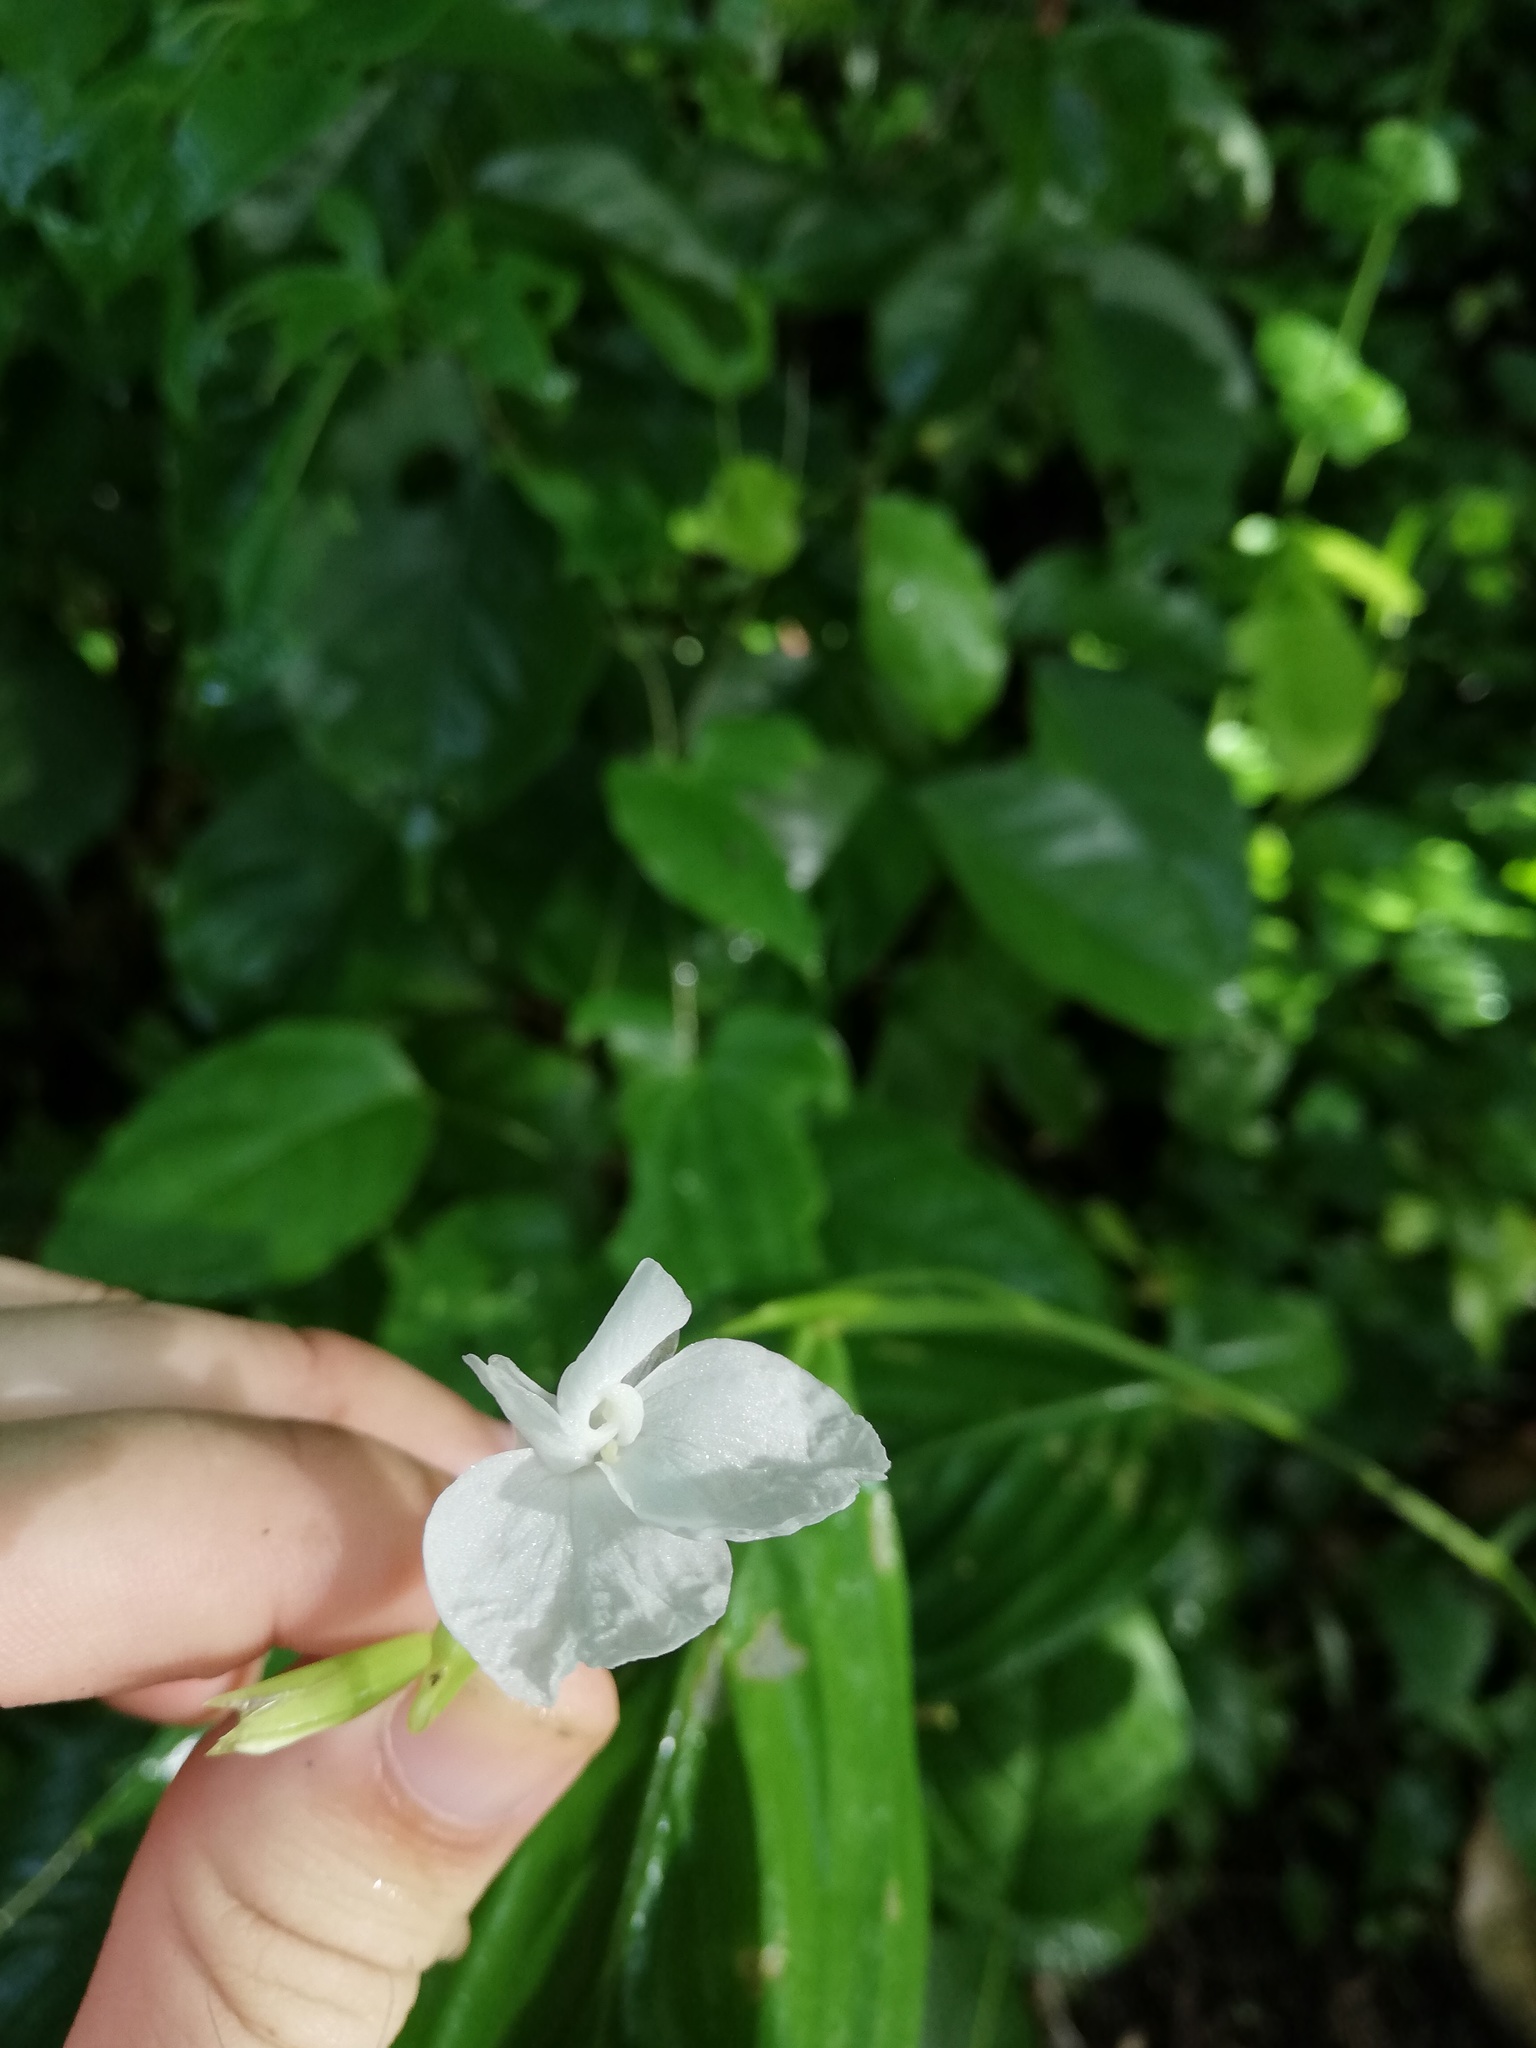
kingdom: Plantae
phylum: Tracheophyta
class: Liliopsida
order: Zingiberales
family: Marantaceae
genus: Maranta
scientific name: Maranta arundinacea
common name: Arrowroot
